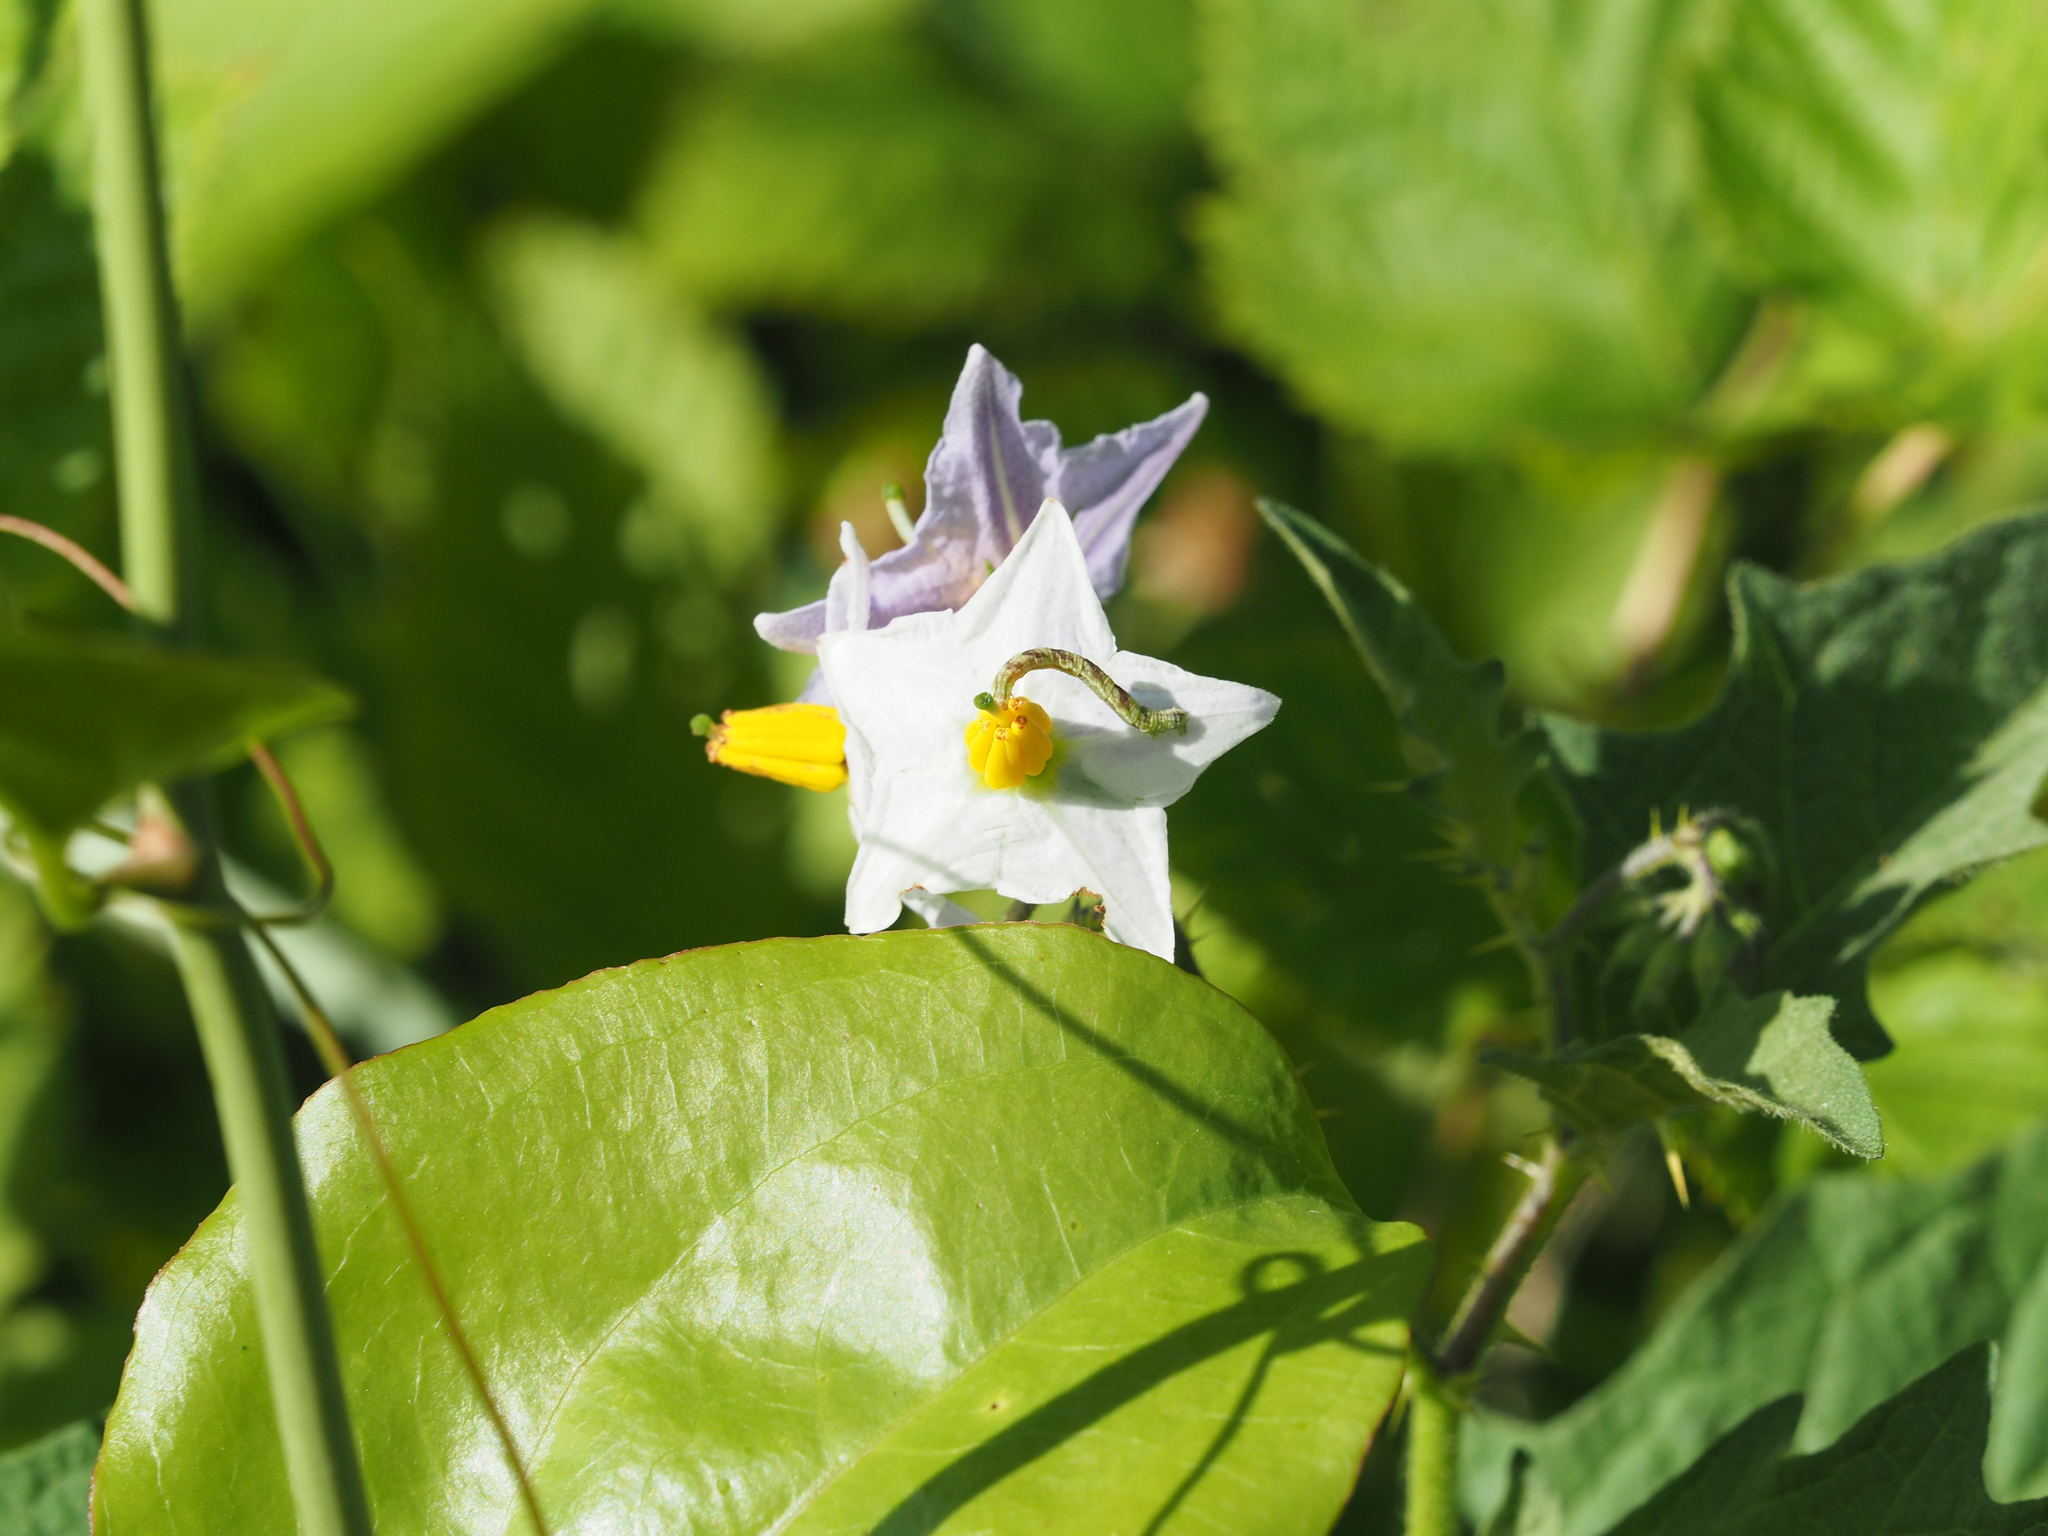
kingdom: Plantae
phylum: Tracheophyta
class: Magnoliopsida
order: Solanales
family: Solanaceae
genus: Solanum
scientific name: Solanum carolinense
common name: Horse-nettle
